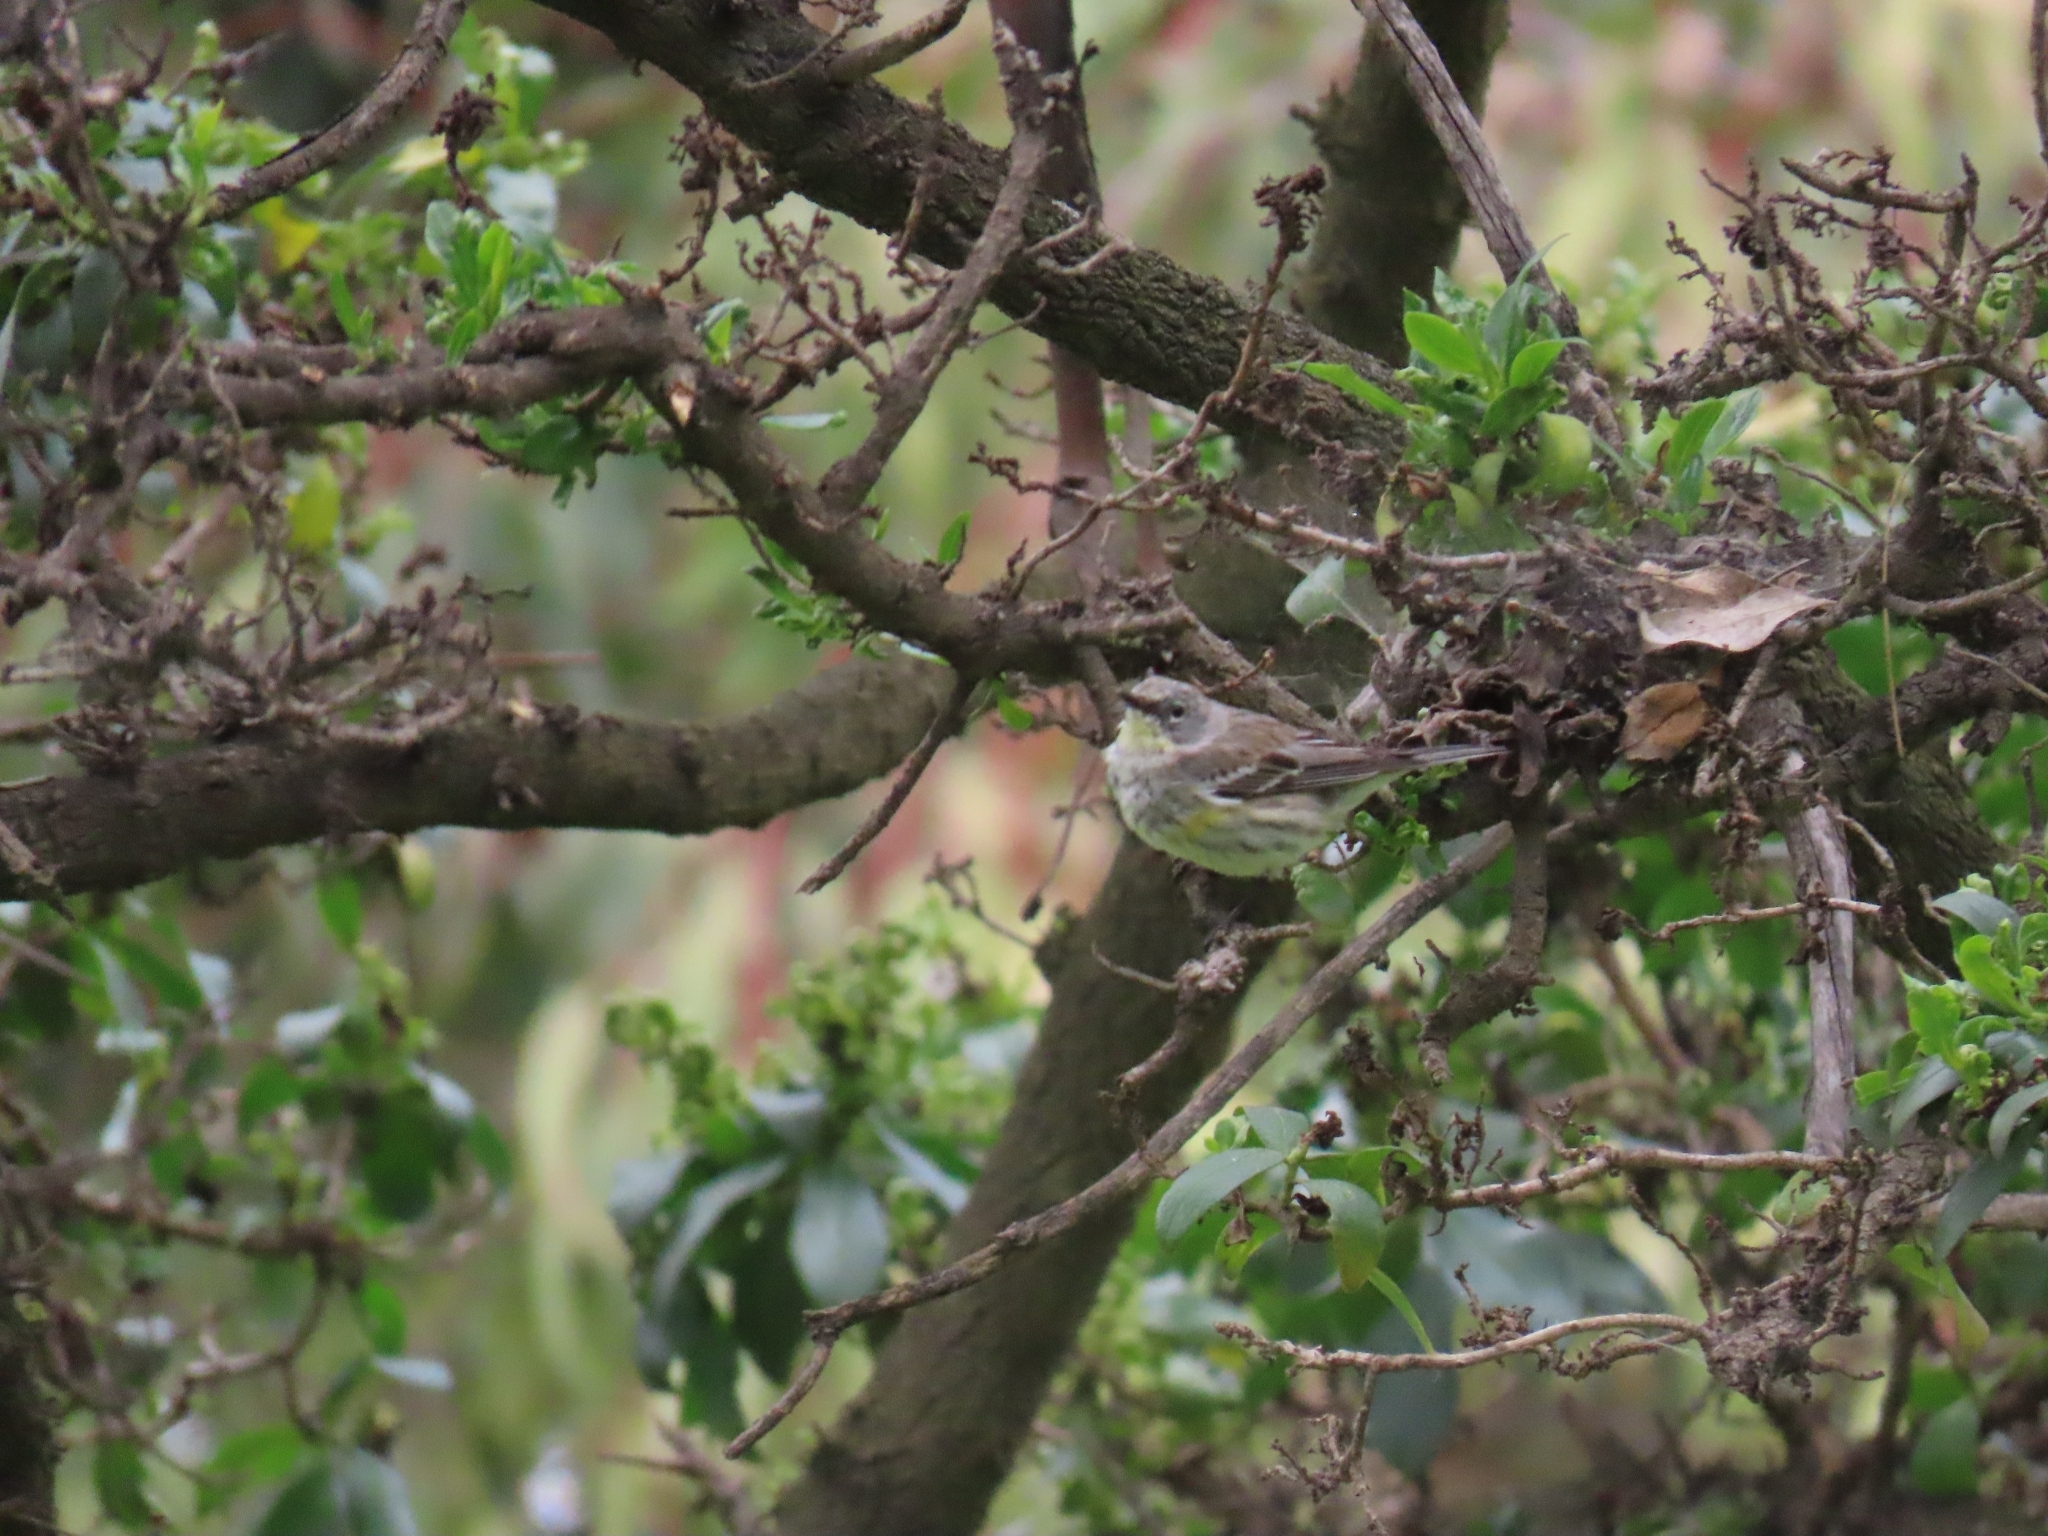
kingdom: Animalia
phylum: Chordata
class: Aves
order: Passeriformes
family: Parulidae
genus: Setophaga
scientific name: Setophaga coronata
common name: Myrtle warbler
